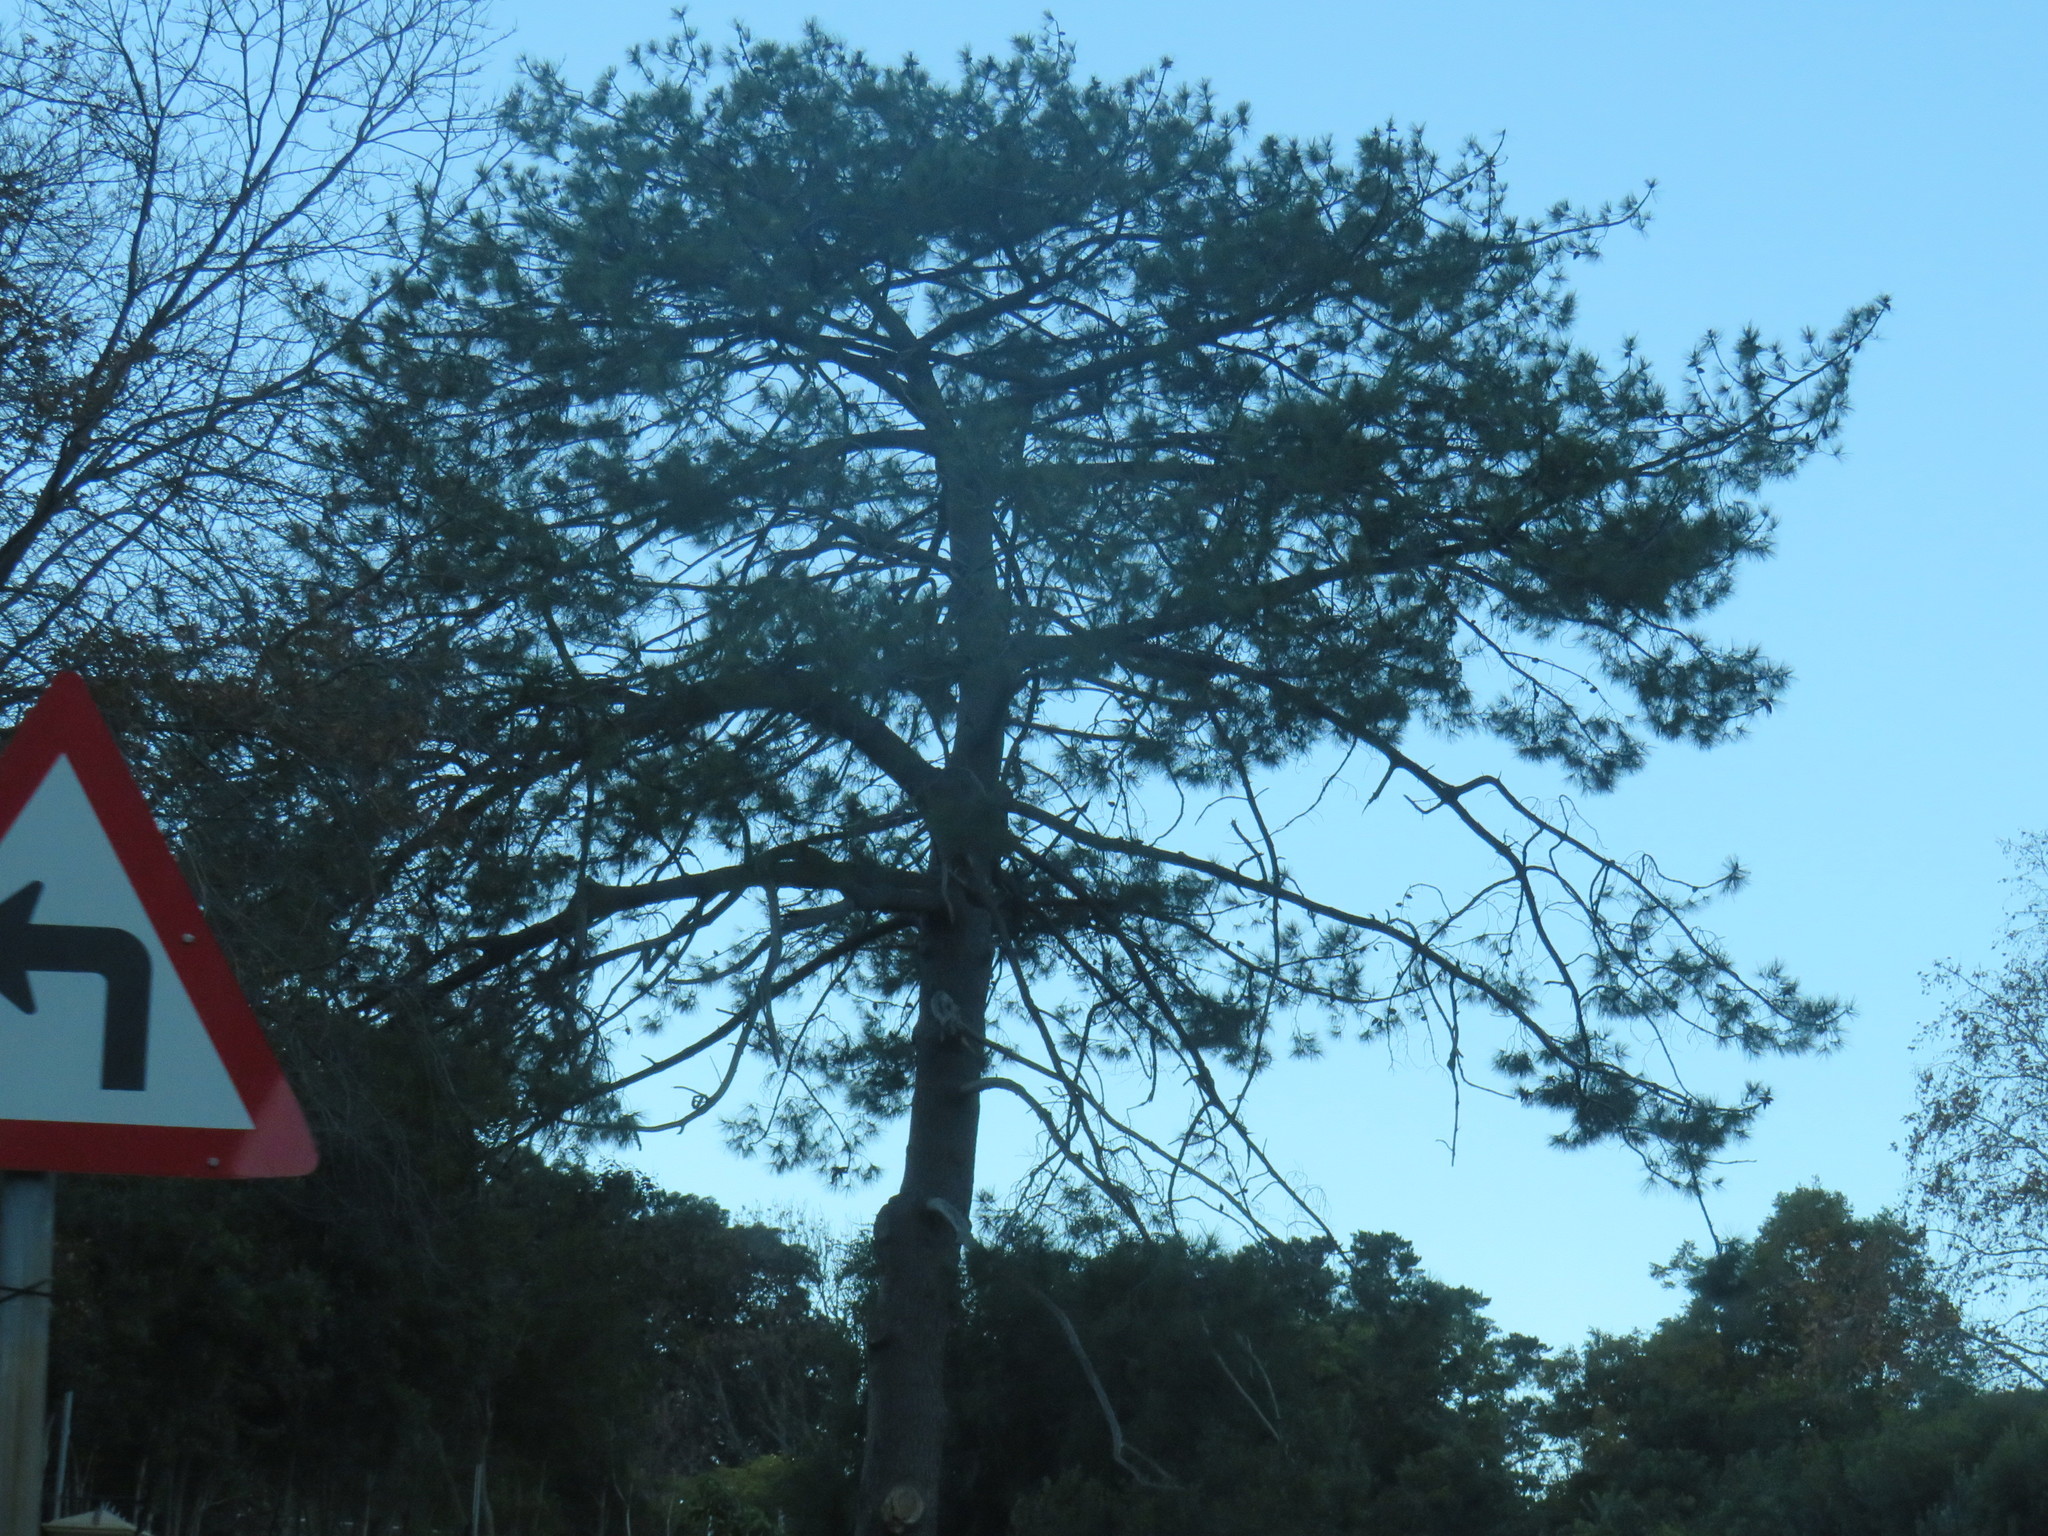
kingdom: Plantae
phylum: Tracheophyta
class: Pinopsida
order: Pinales
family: Pinaceae
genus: Pinus
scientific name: Pinus pinaster
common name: Maritime pine
